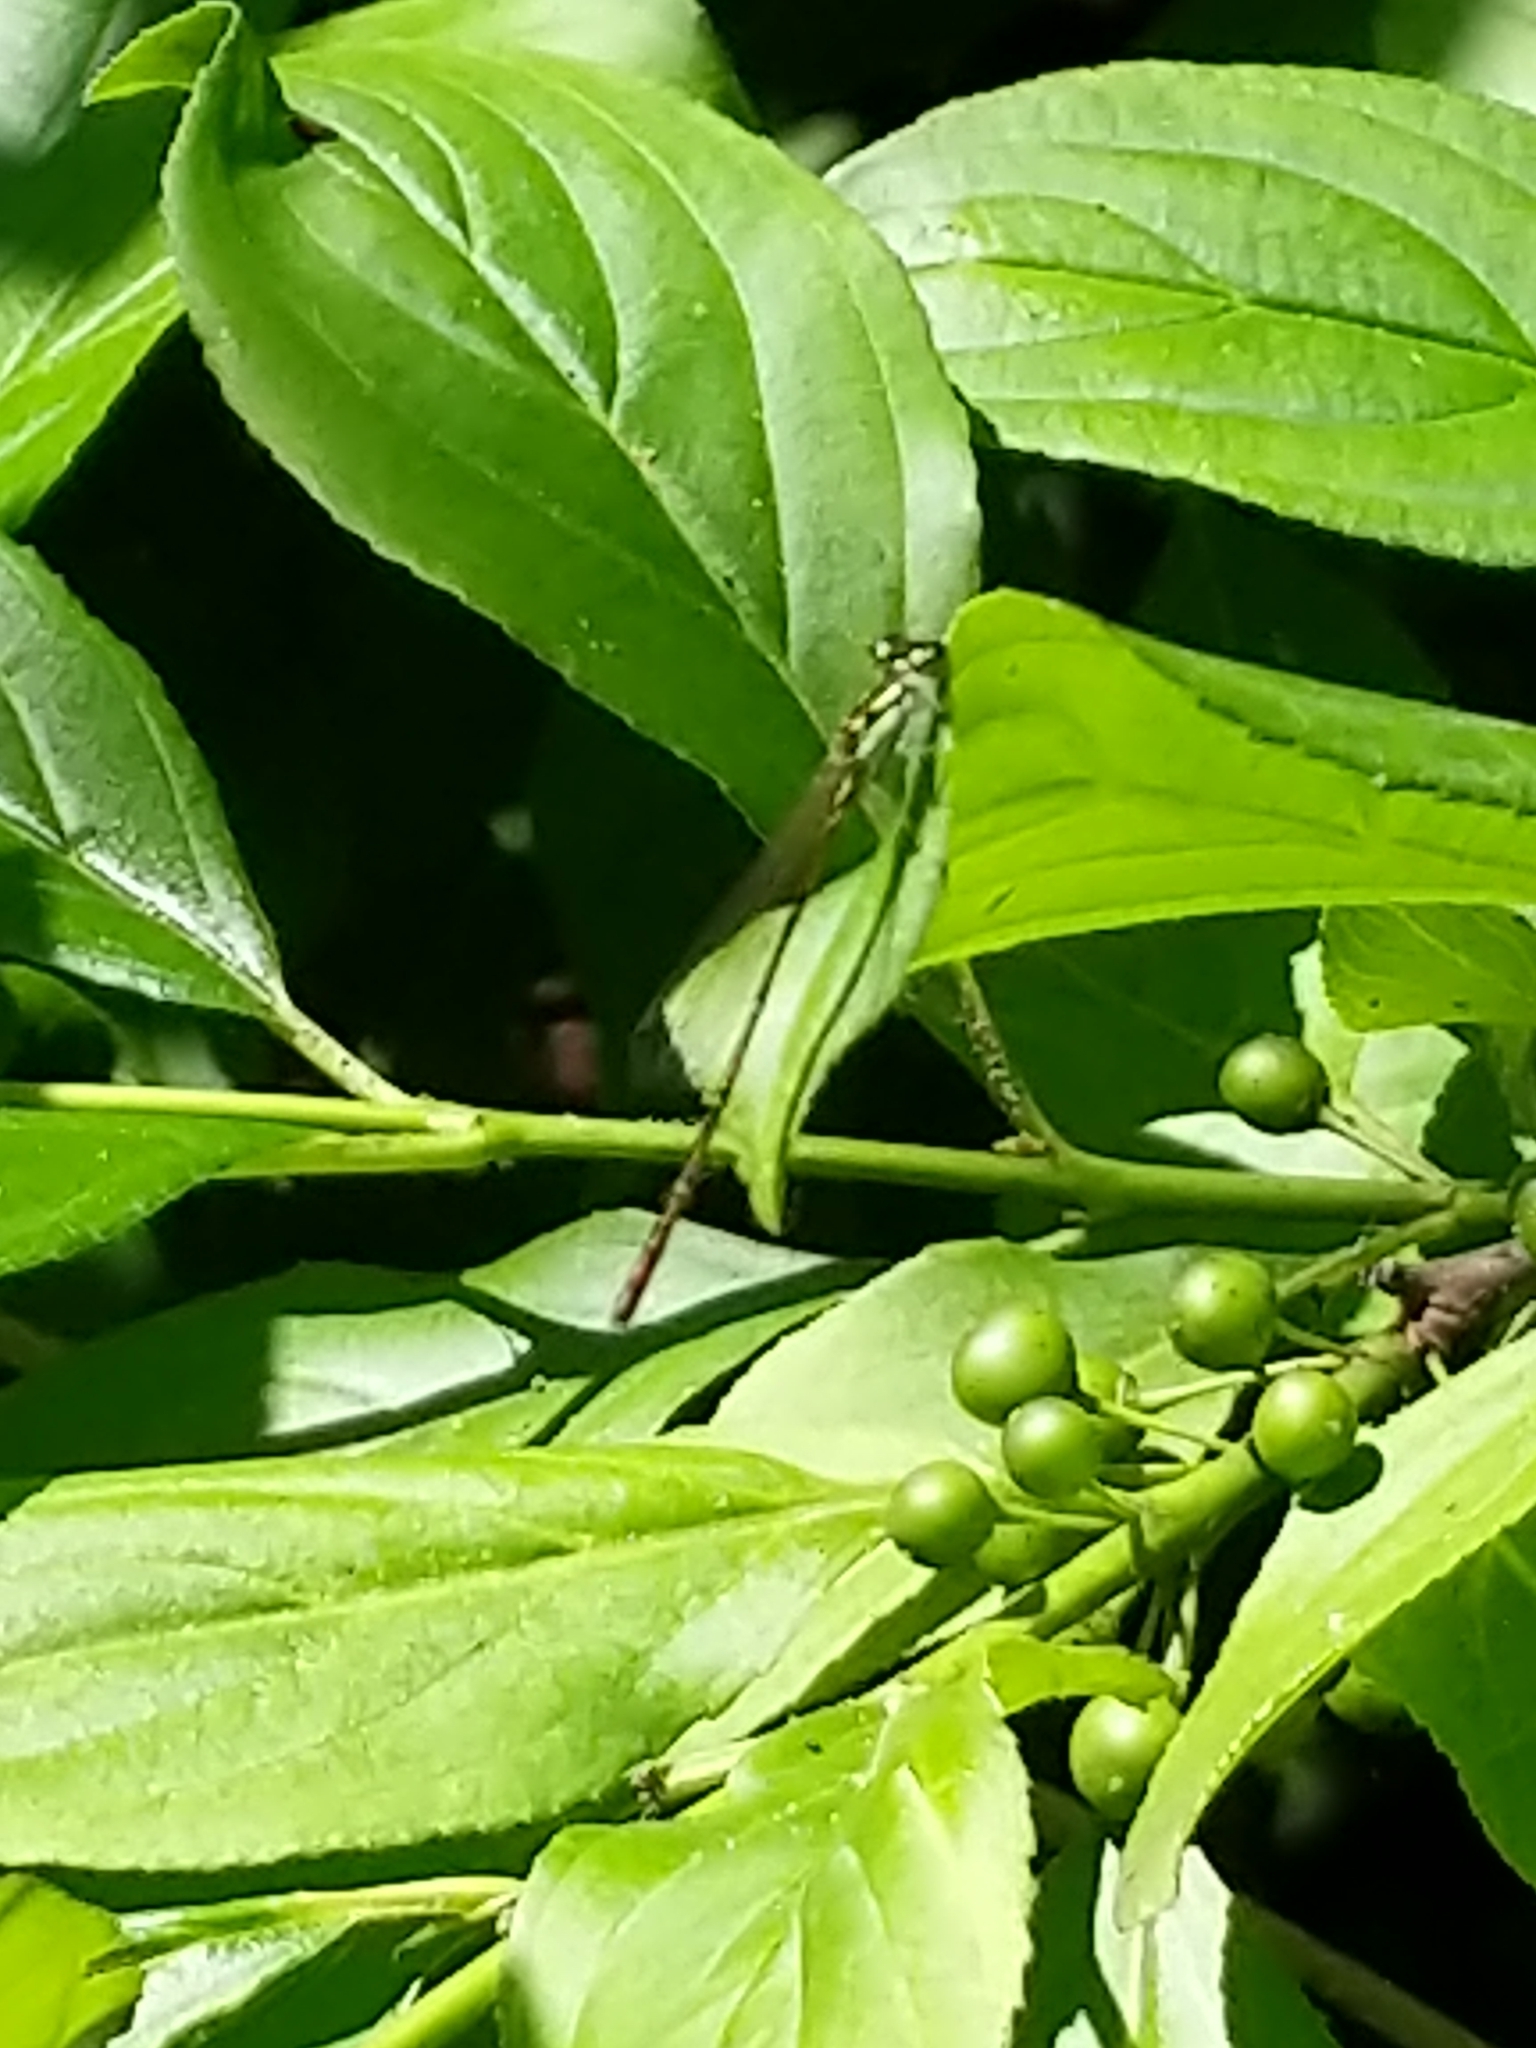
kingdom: Animalia
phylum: Arthropoda
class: Insecta
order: Odonata
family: Coenagrionidae
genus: Ischnura
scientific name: Ischnura posita
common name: Fragile forktail
